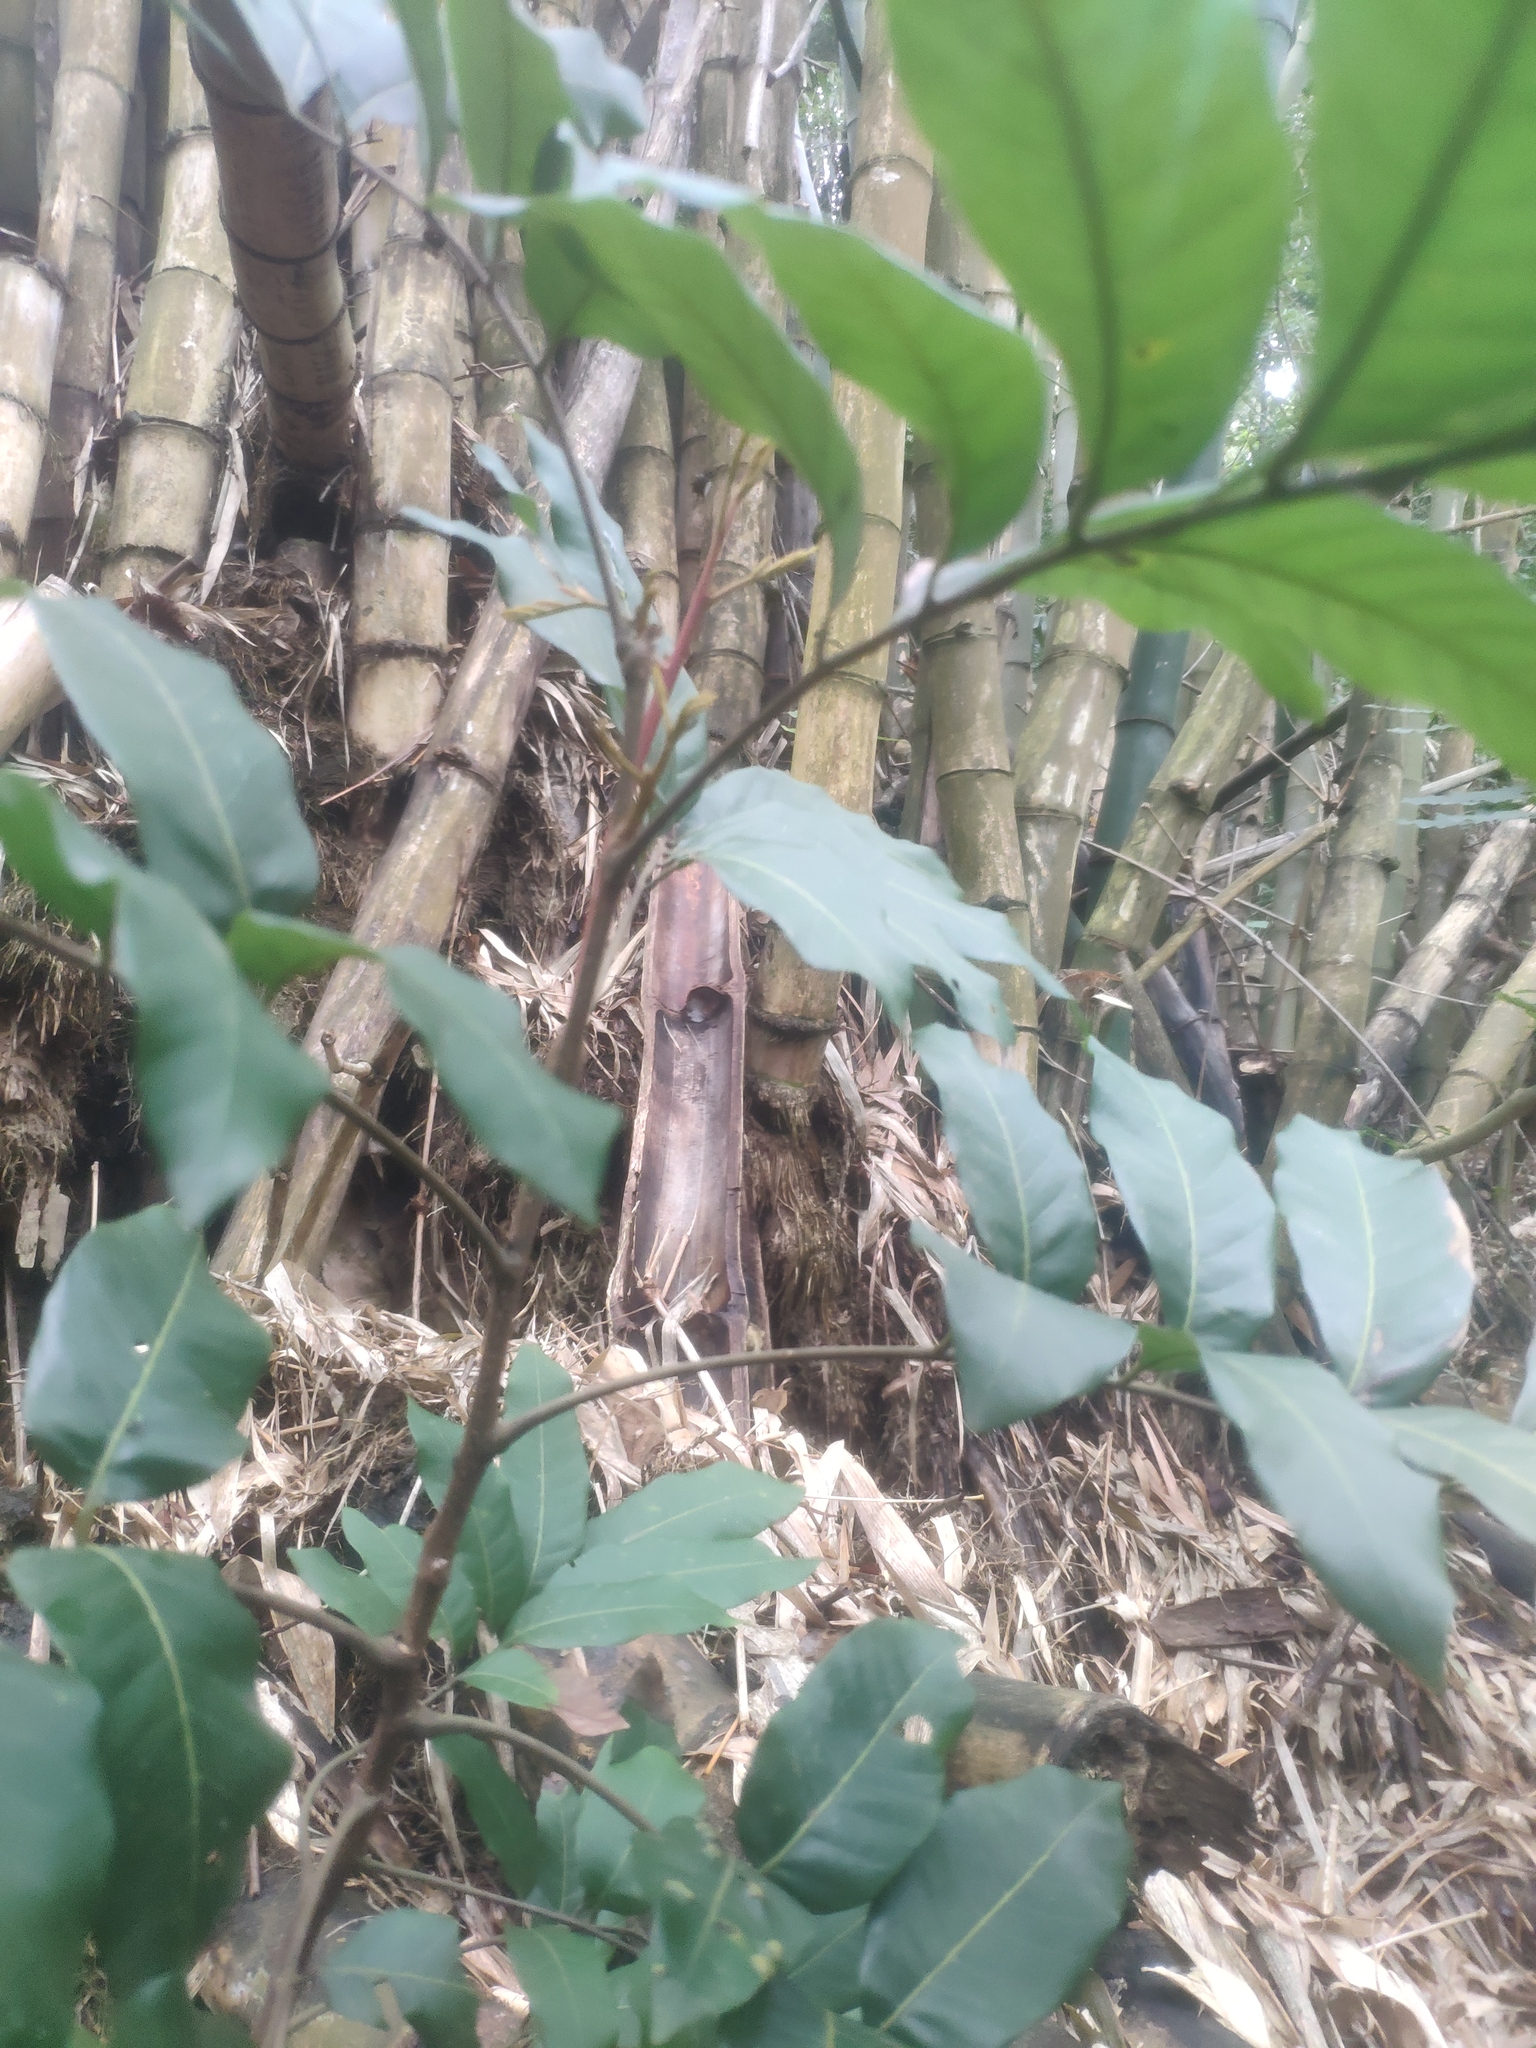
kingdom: Plantae
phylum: Tracheophyta
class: Magnoliopsida
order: Sapindales
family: Sapindaceae
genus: Dimocarpus
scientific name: Dimocarpus longan
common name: Longan
